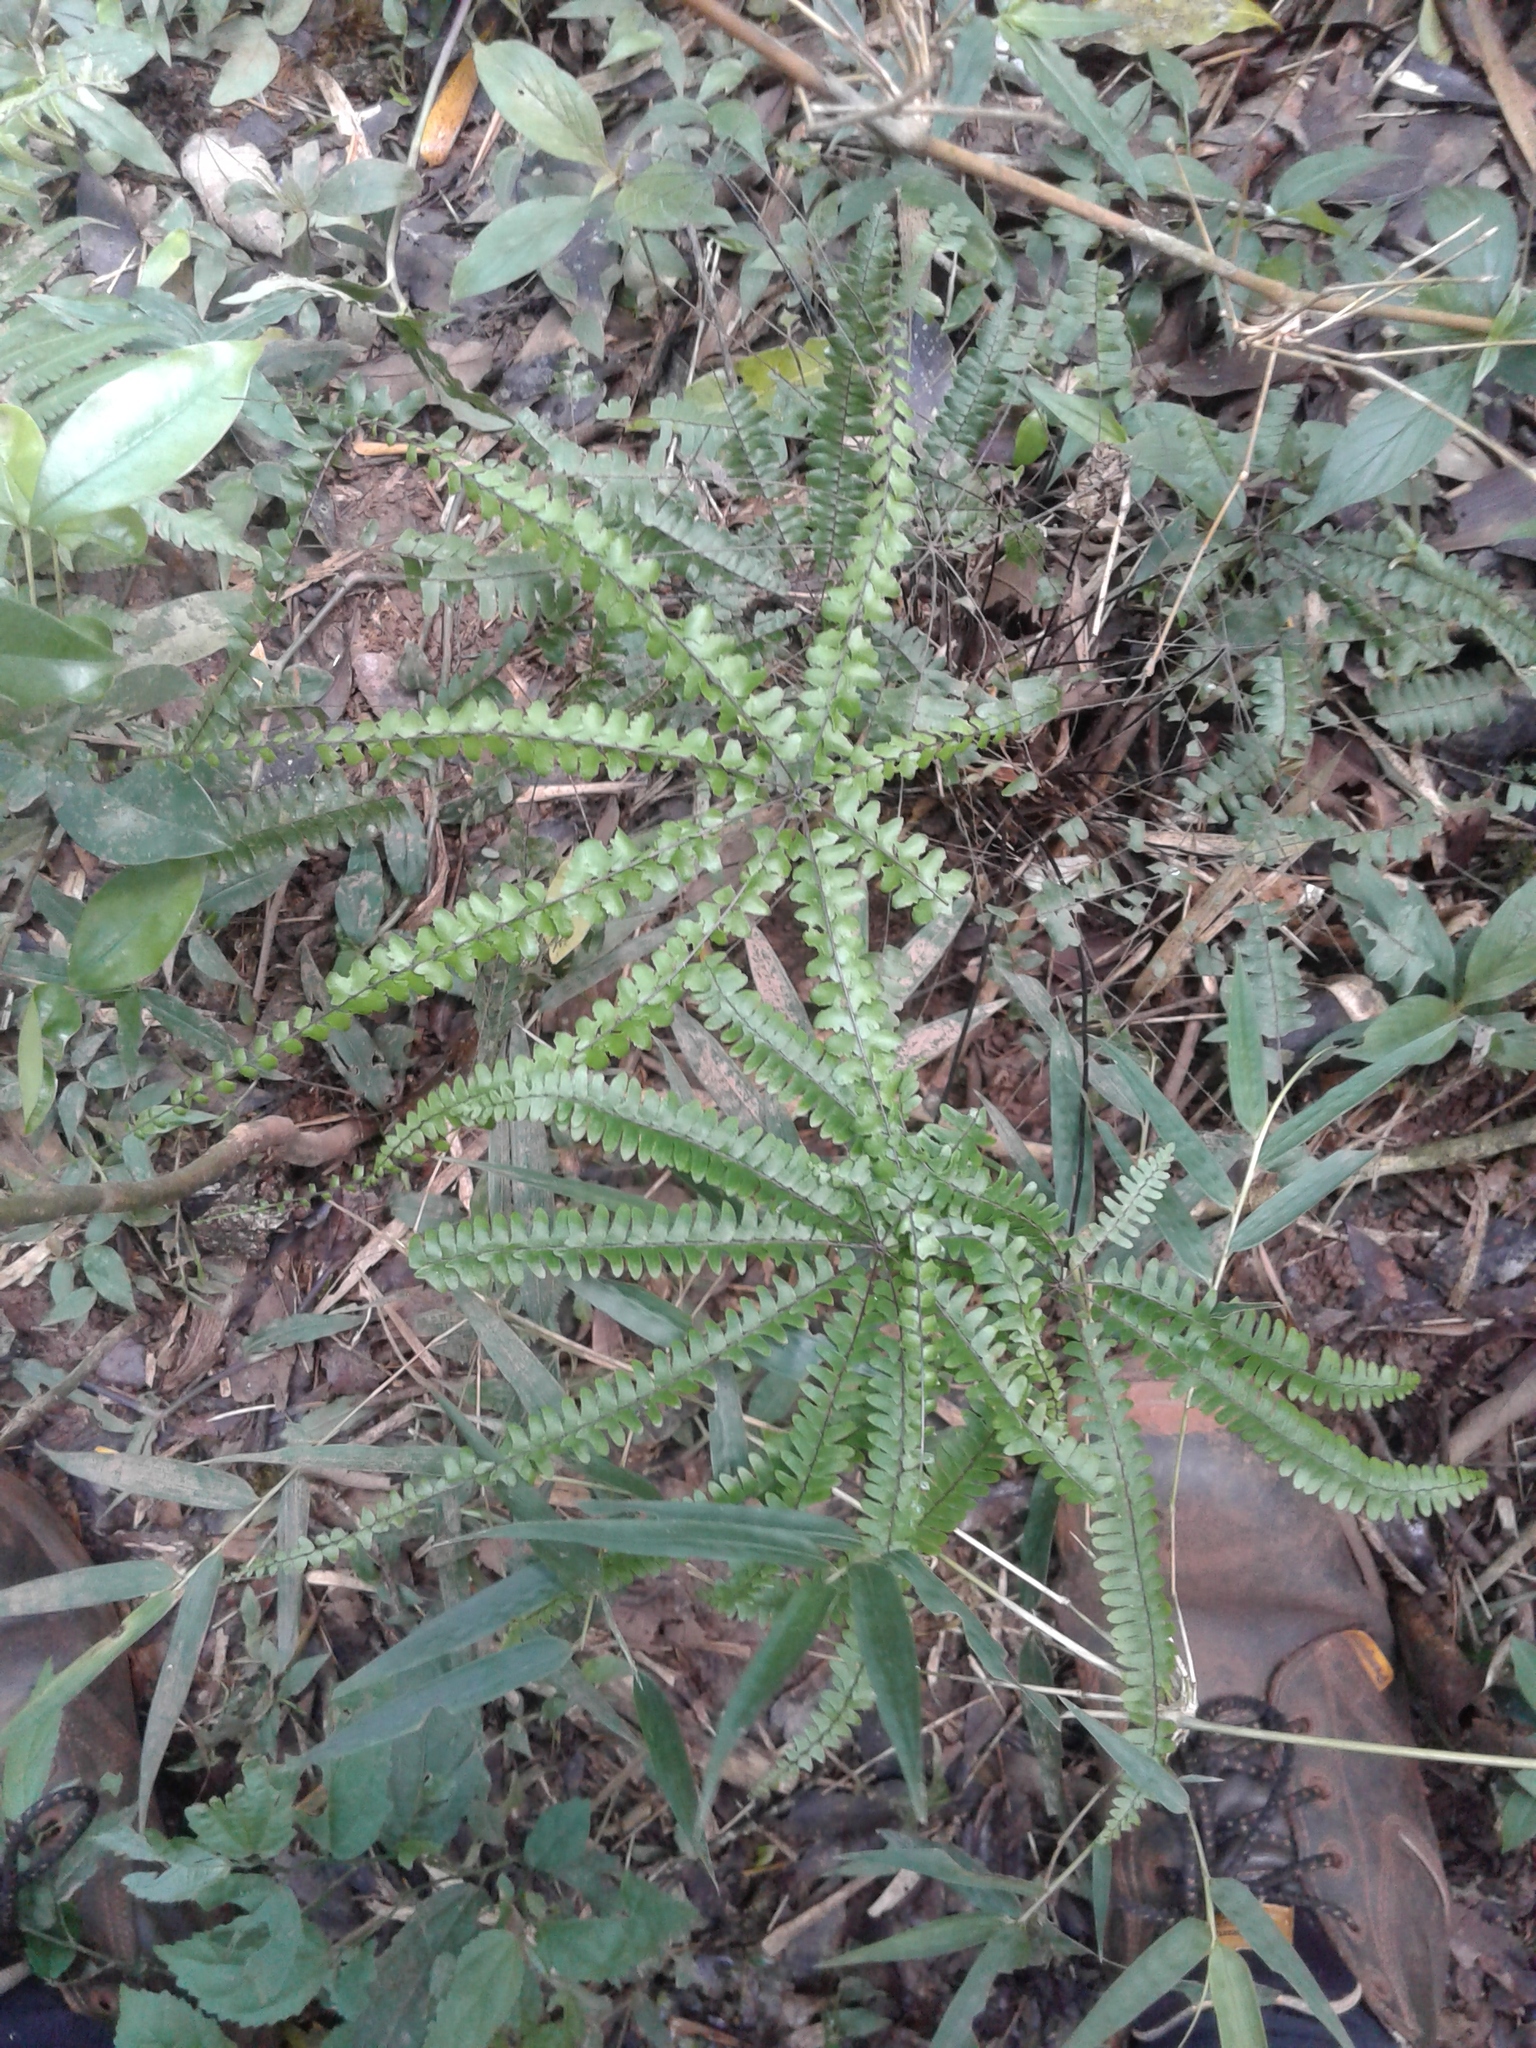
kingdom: Plantae
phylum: Tracheophyta
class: Polypodiopsida
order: Polypodiales
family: Pteridaceae
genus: Adiantopsis
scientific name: Adiantopsis radiata
